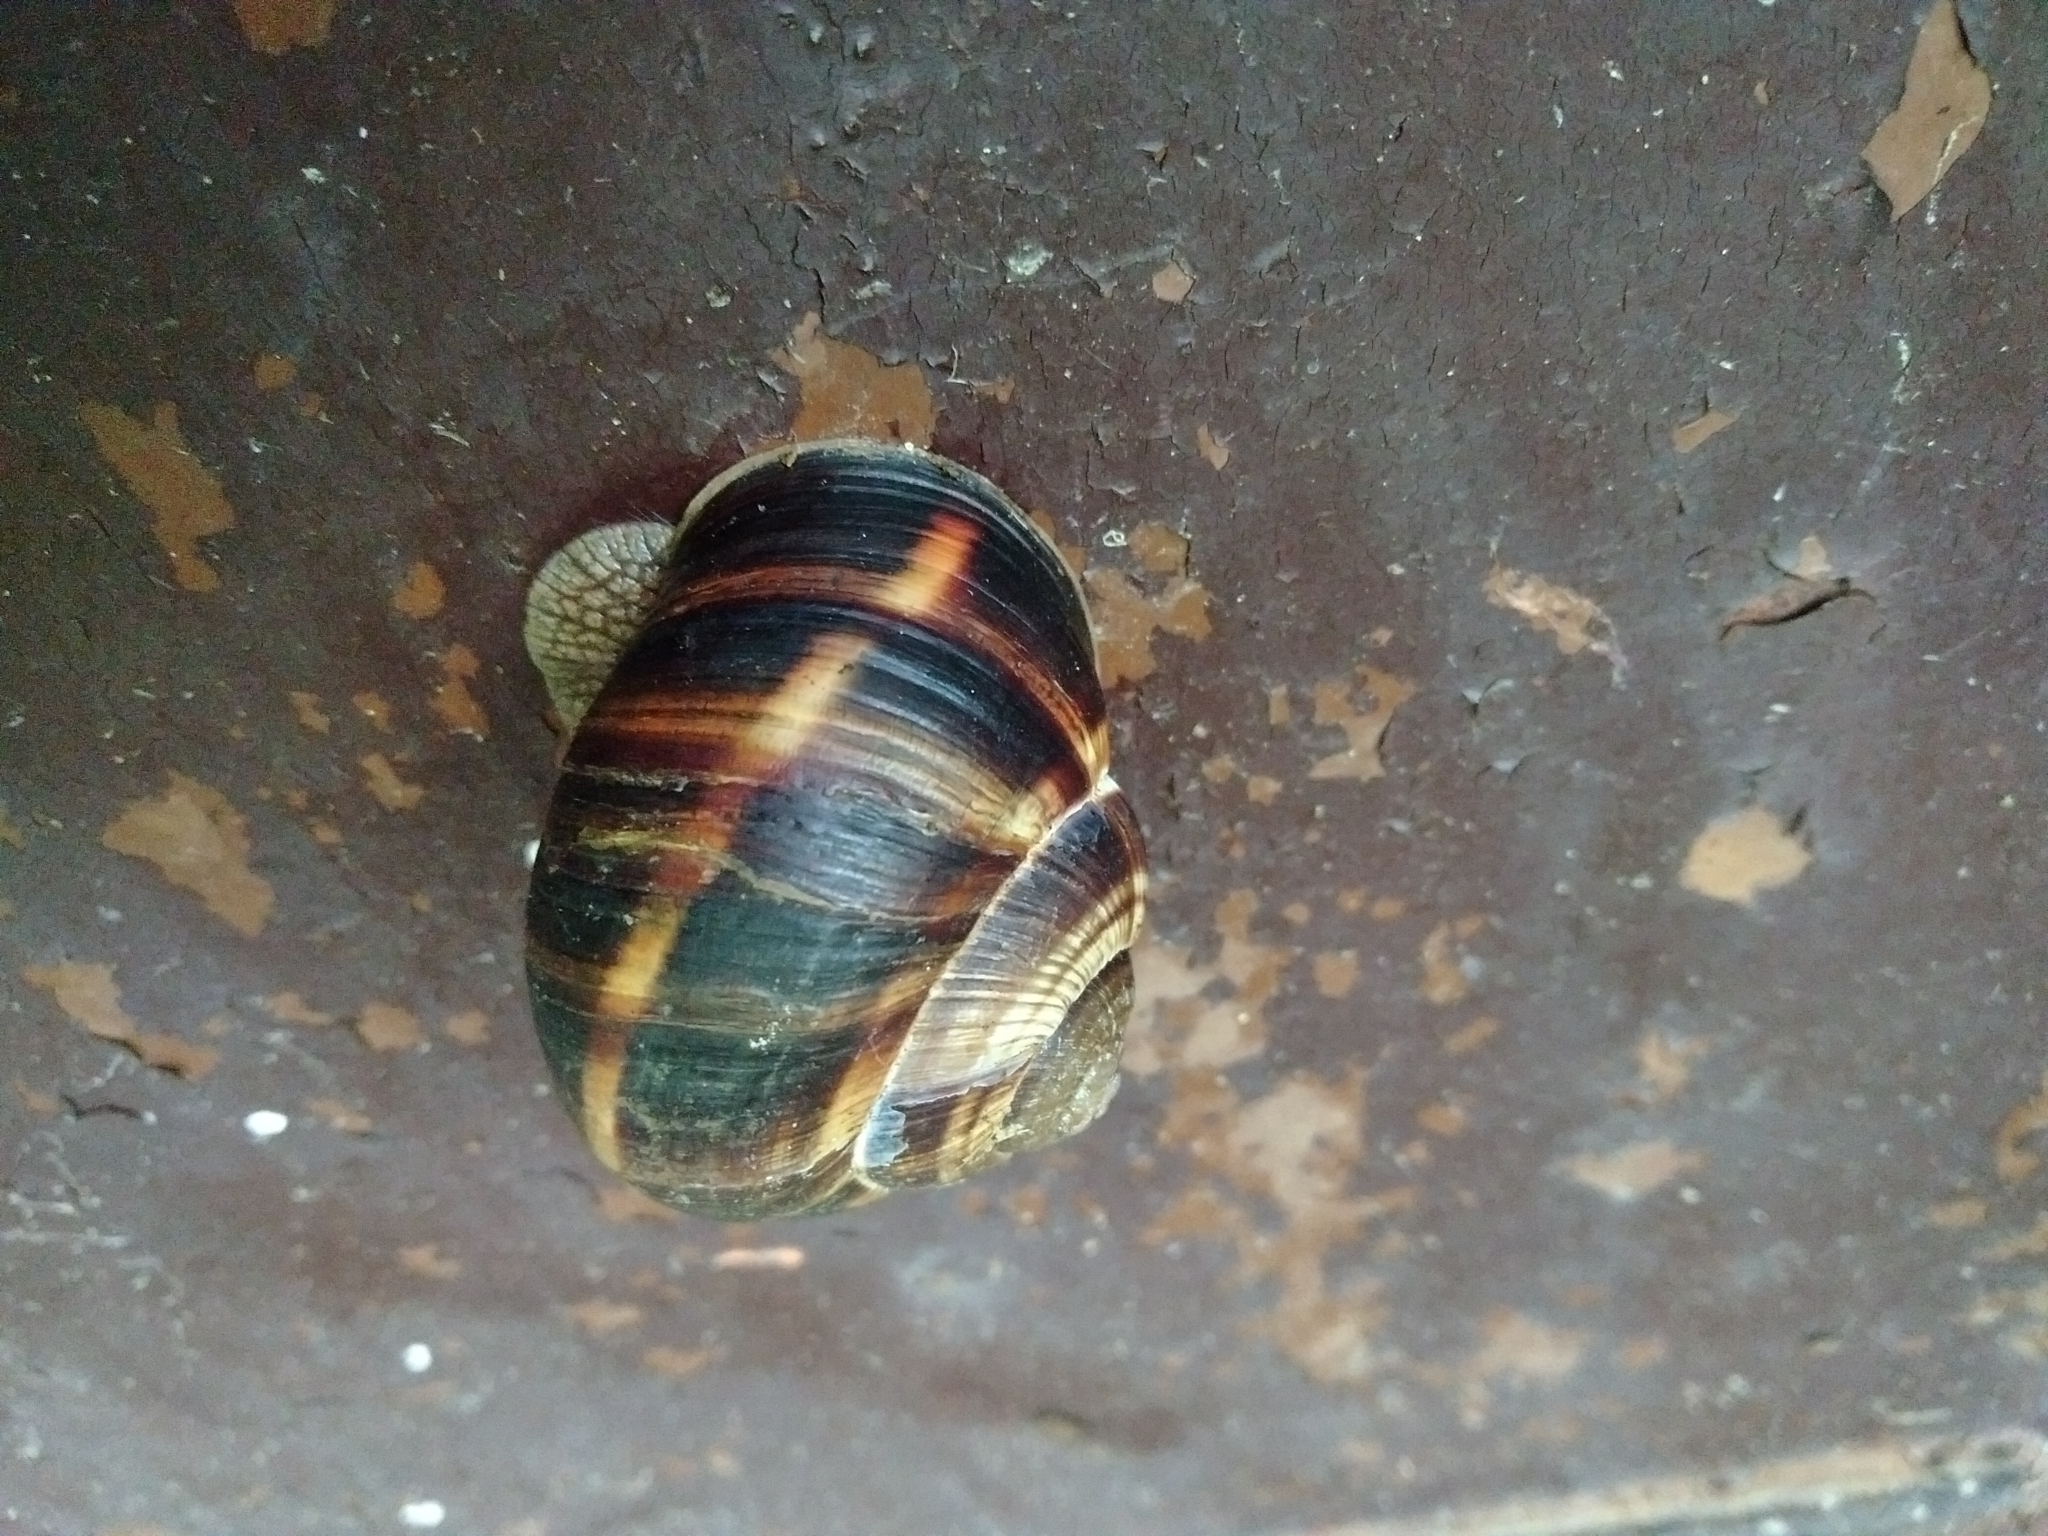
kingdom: Animalia
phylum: Mollusca
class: Gastropoda
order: Stylommatophora
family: Helicidae
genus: Helix
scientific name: Helix lucorum
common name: Turkish snail
